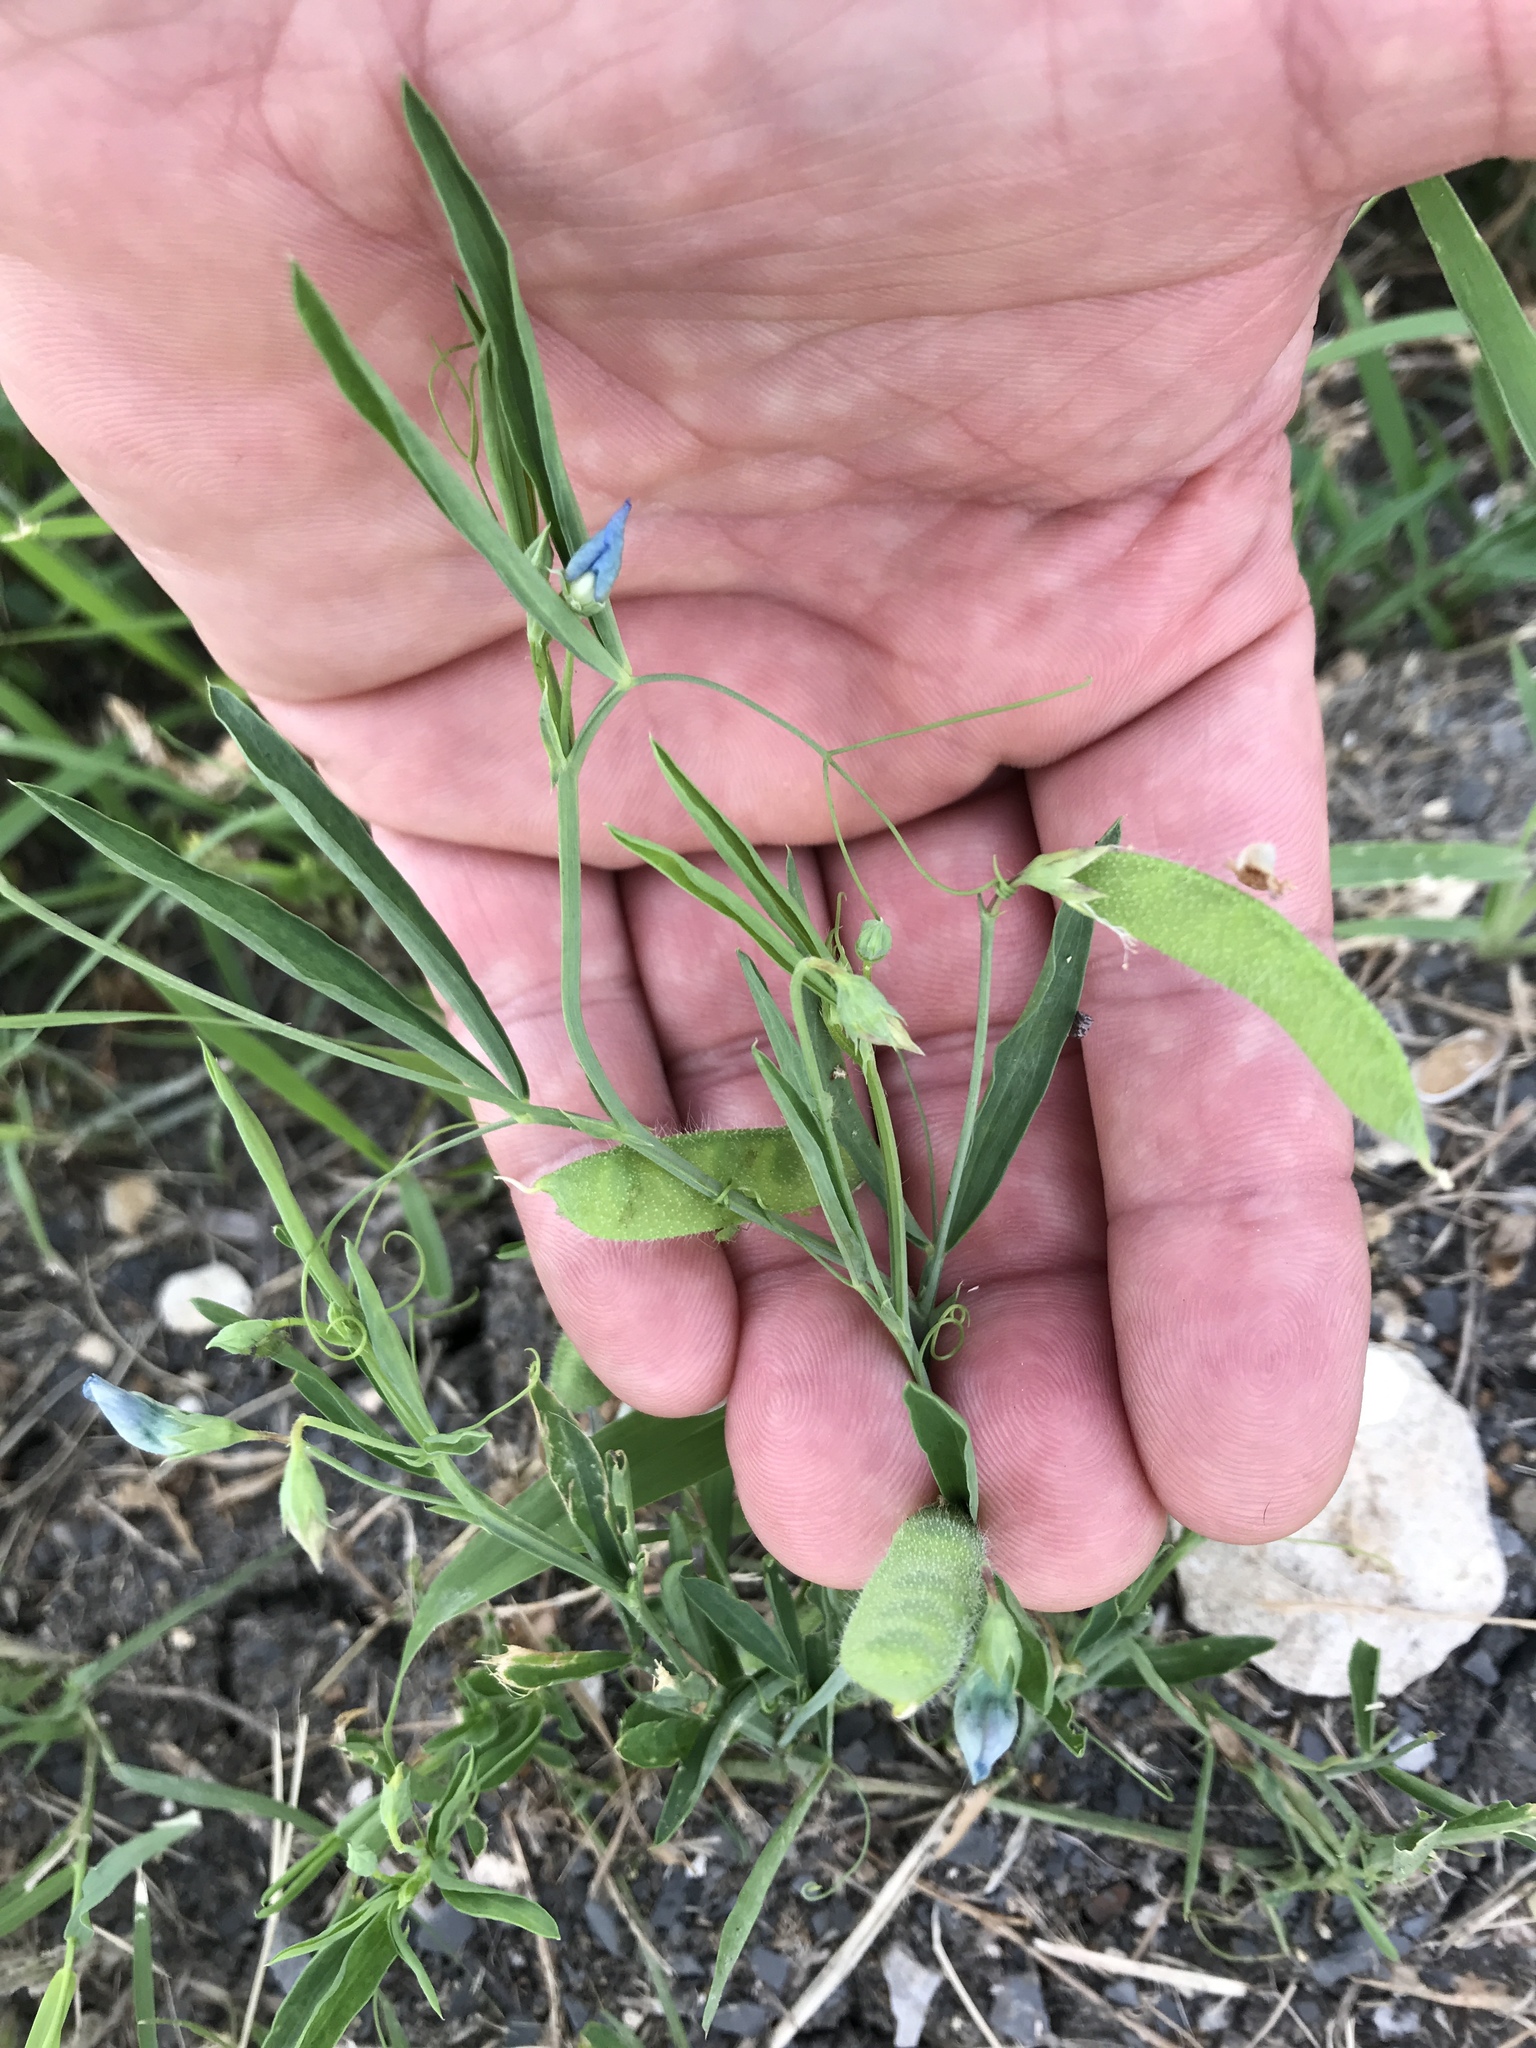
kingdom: Plantae
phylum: Tracheophyta
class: Magnoliopsida
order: Fabales
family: Fabaceae
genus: Lathyrus
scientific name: Lathyrus hirsutus
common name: Hairy vetchling
